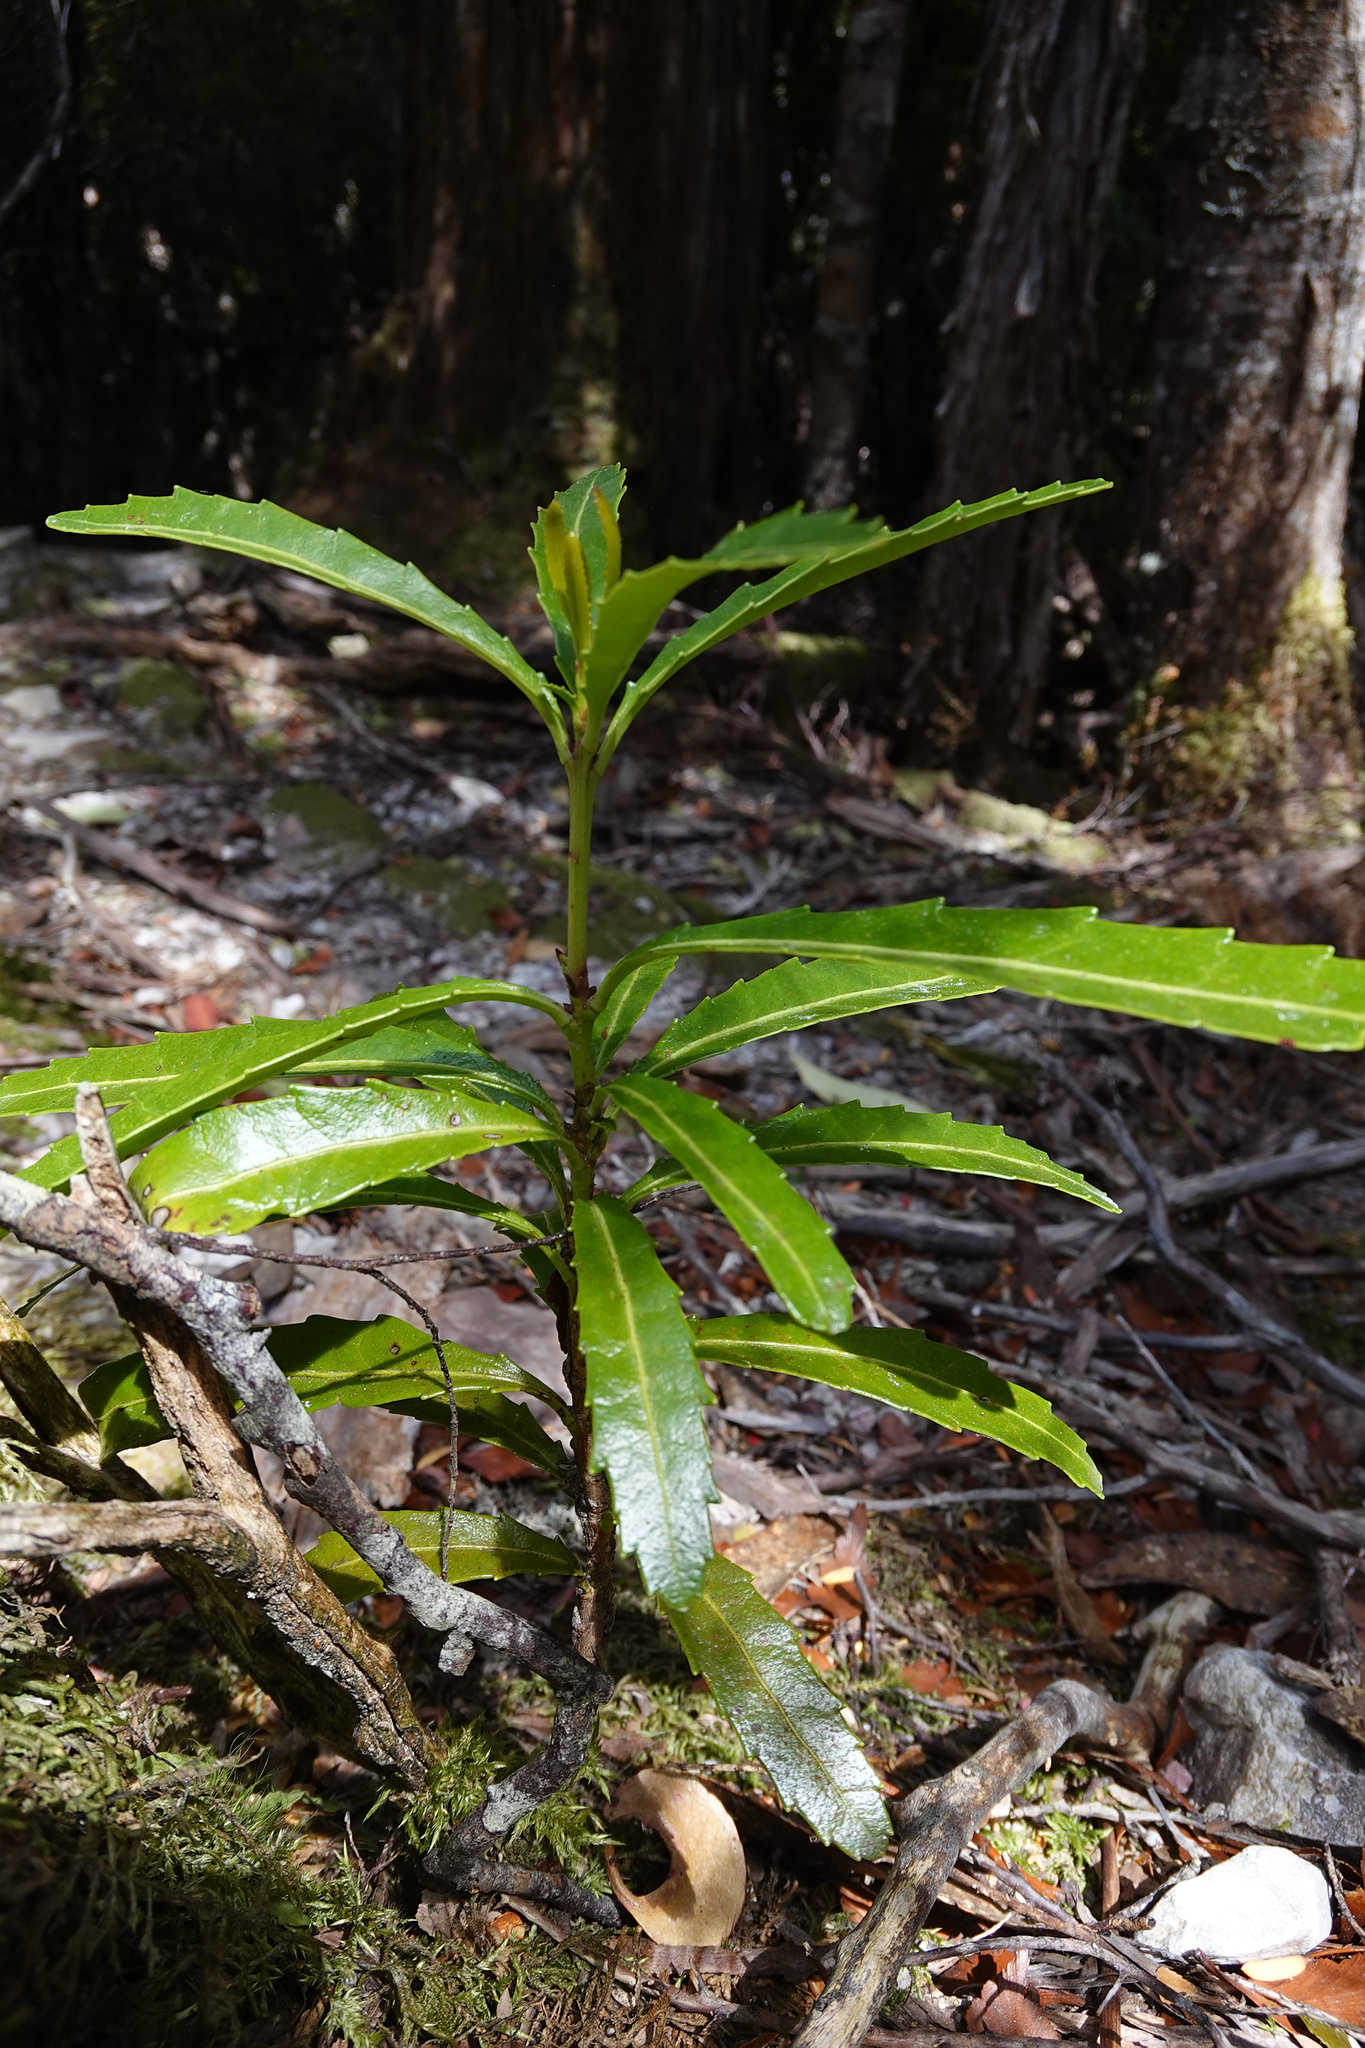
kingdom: Plantae
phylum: Tracheophyta
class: Magnoliopsida
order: Proteales
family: Proteaceae
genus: Cenarrhenes
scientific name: Cenarrhenes nitida
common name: Native plum
